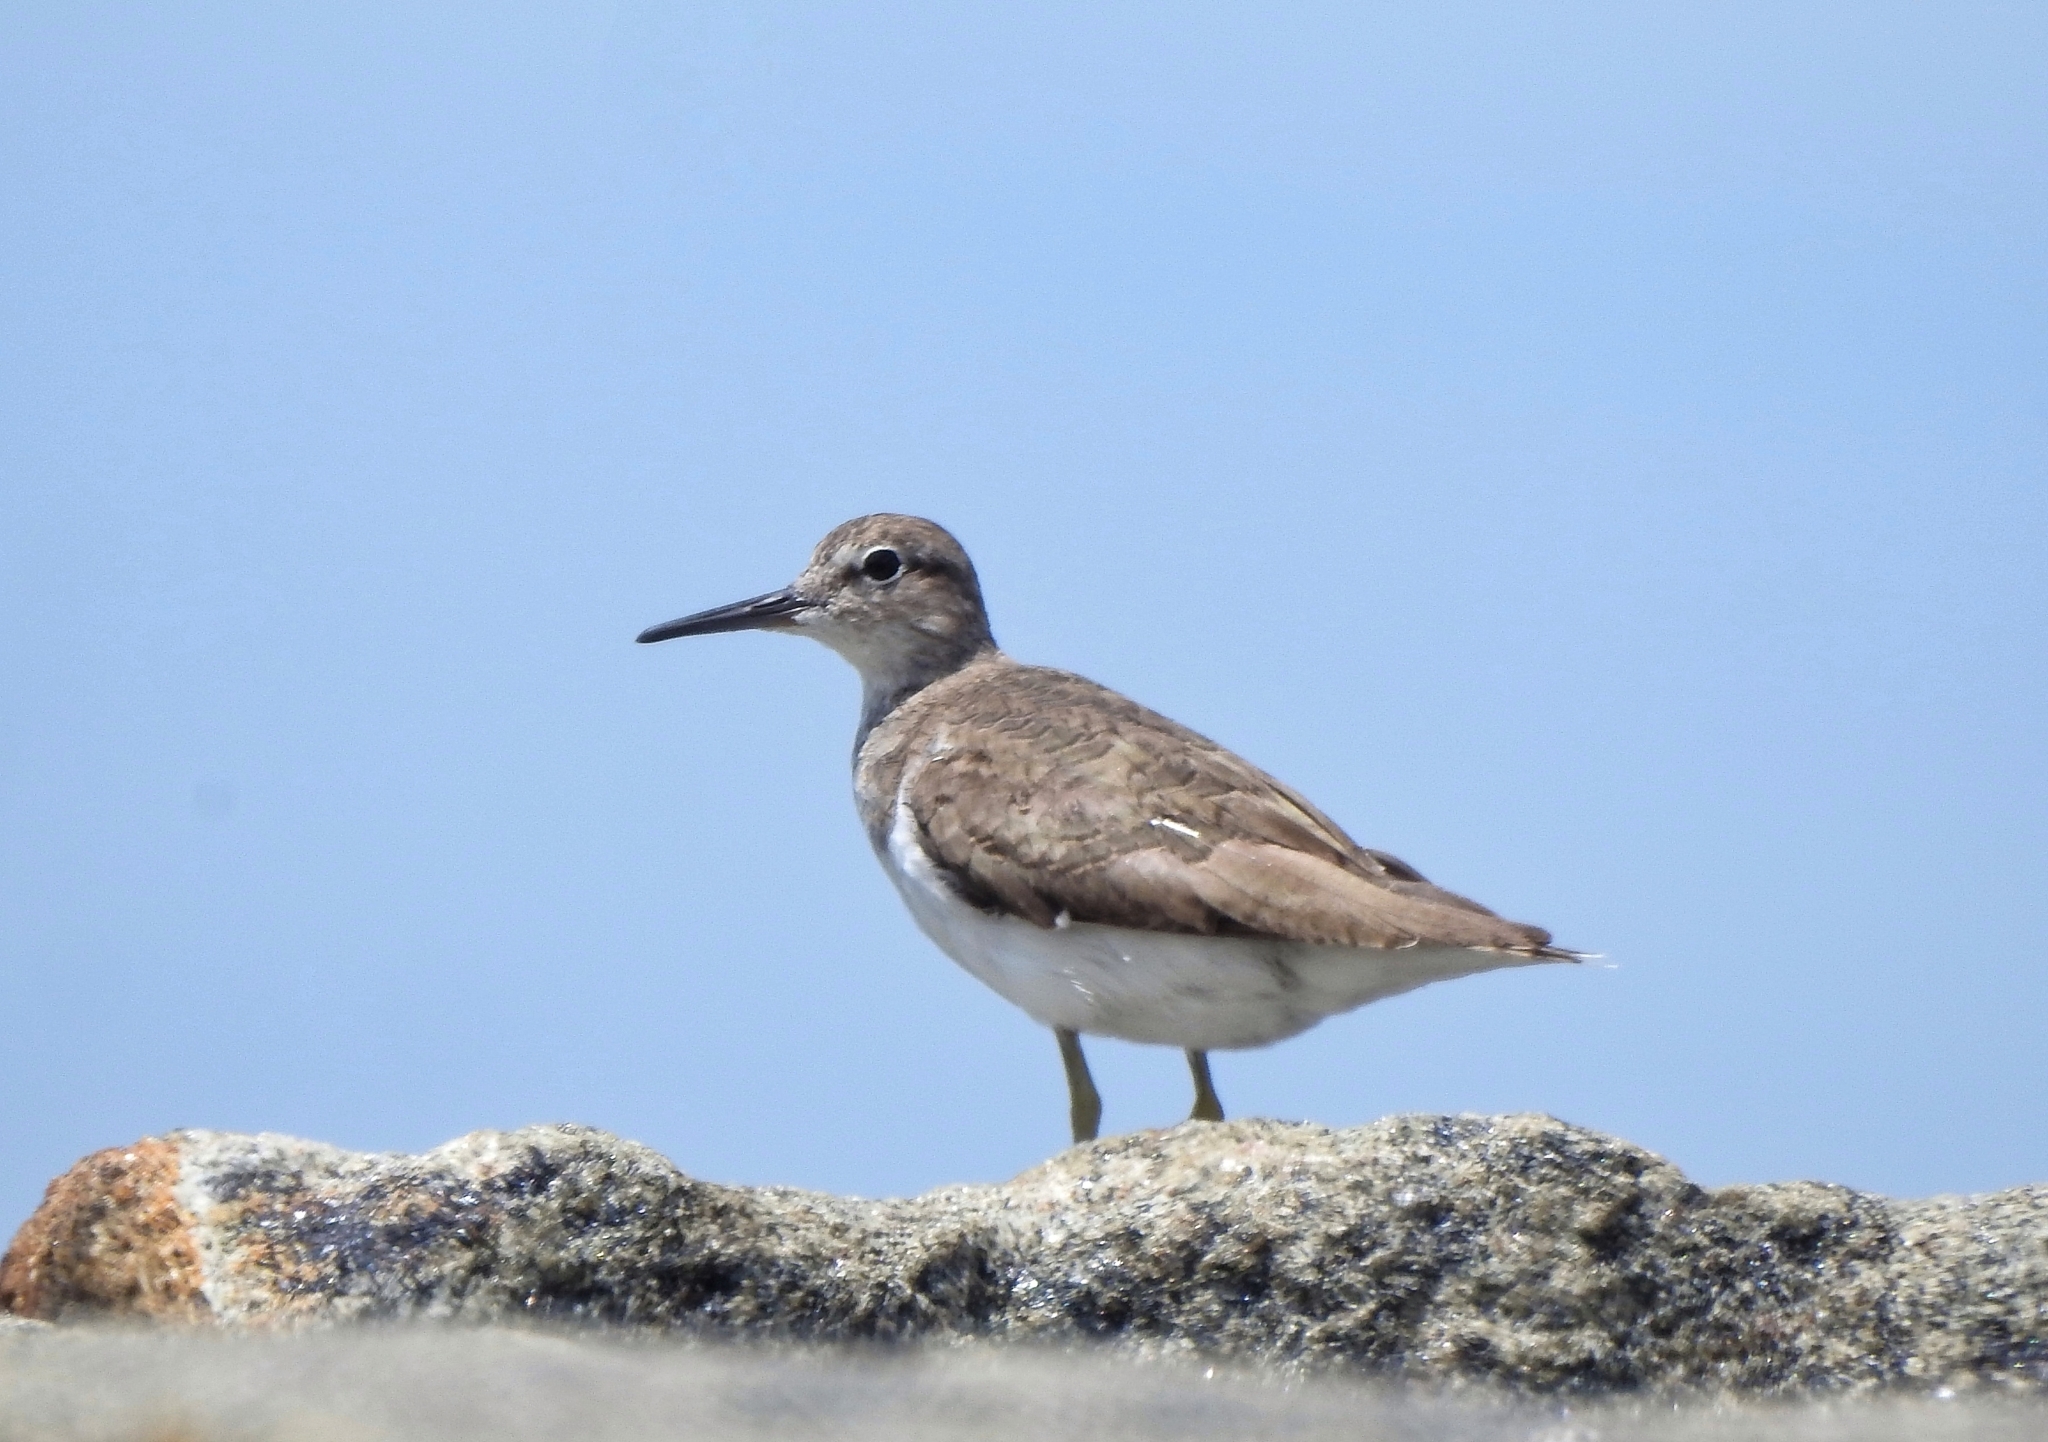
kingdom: Animalia
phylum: Chordata
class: Aves
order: Charadriiformes
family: Scolopacidae
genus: Actitis
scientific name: Actitis hypoleucos
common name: Common sandpiper
